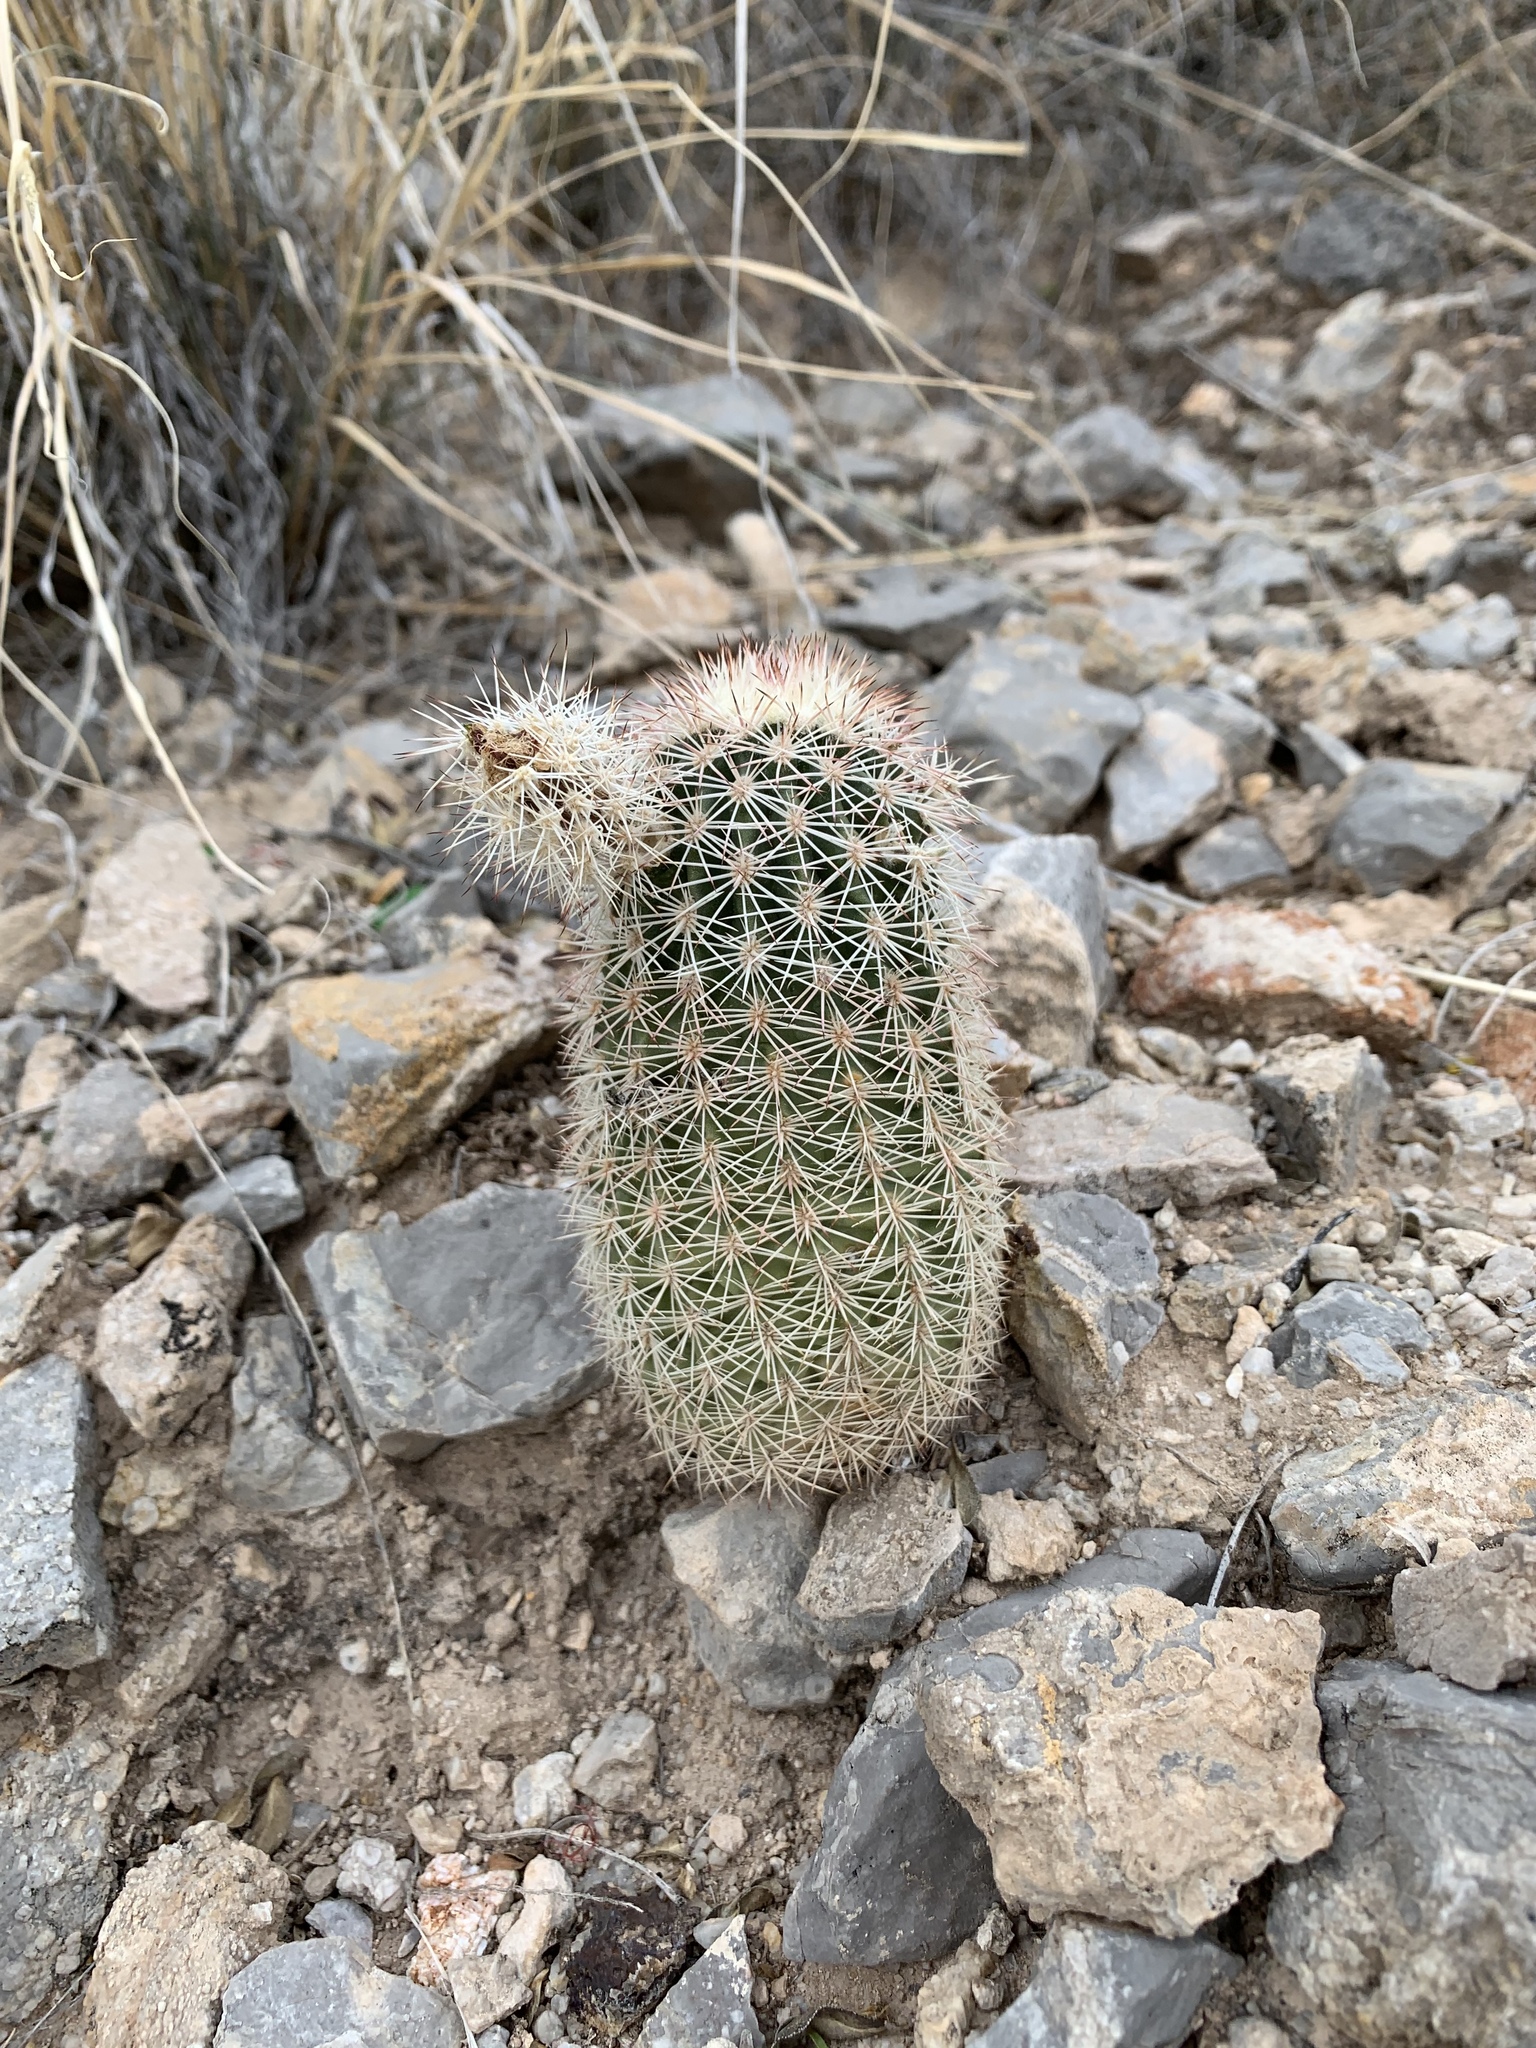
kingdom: Plantae
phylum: Tracheophyta
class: Magnoliopsida
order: Caryophyllales
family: Cactaceae
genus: Echinocereus
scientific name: Echinocereus dasyacanthus
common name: Spiny hedgehog cactus
